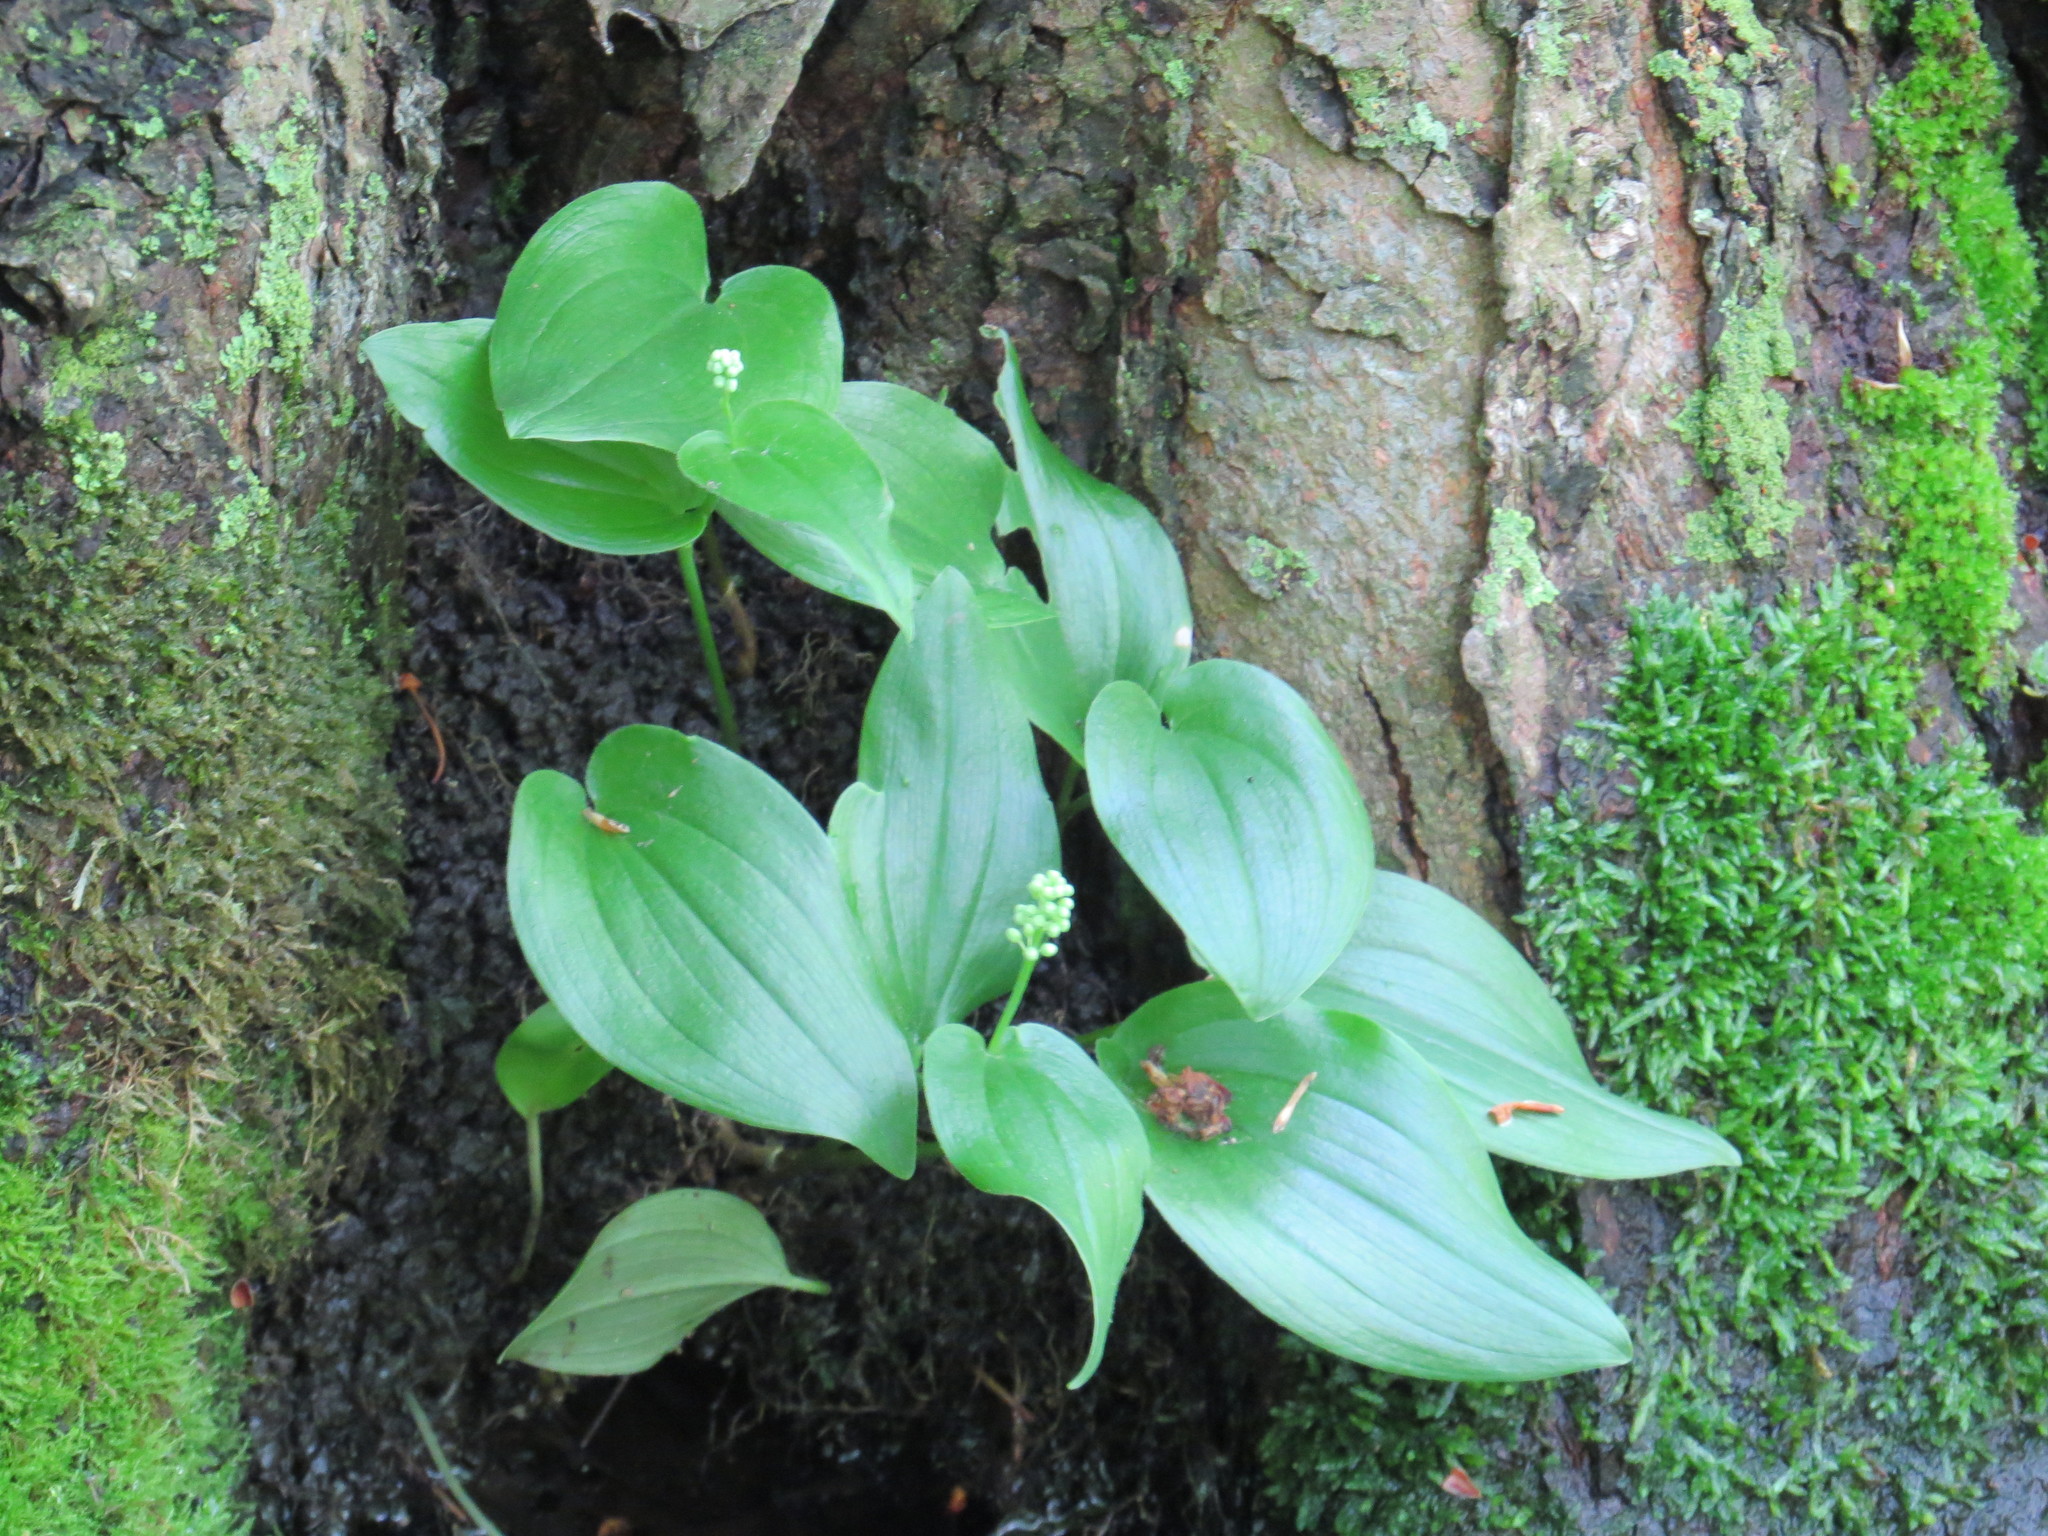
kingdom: Plantae
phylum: Tracheophyta
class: Liliopsida
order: Asparagales
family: Asparagaceae
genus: Maianthemum
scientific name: Maianthemum canadense
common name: False lily-of-the-valley
